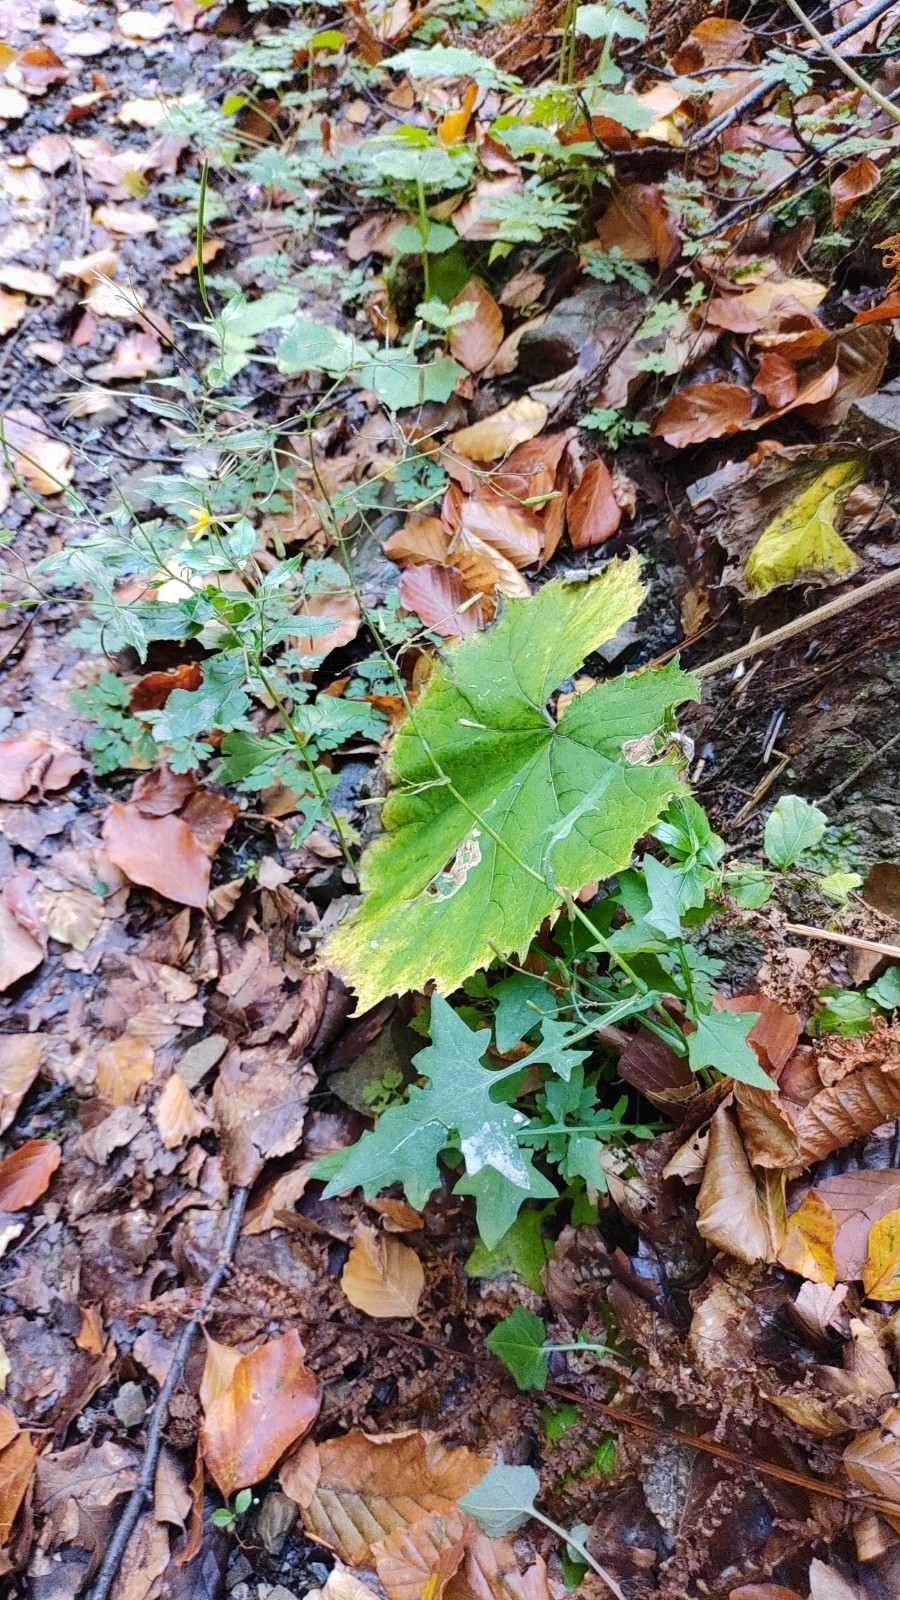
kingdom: Plantae
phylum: Tracheophyta
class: Magnoliopsida
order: Asterales
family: Asteraceae
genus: Mycelis
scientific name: Mycelis muralis
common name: Wall lettuce
